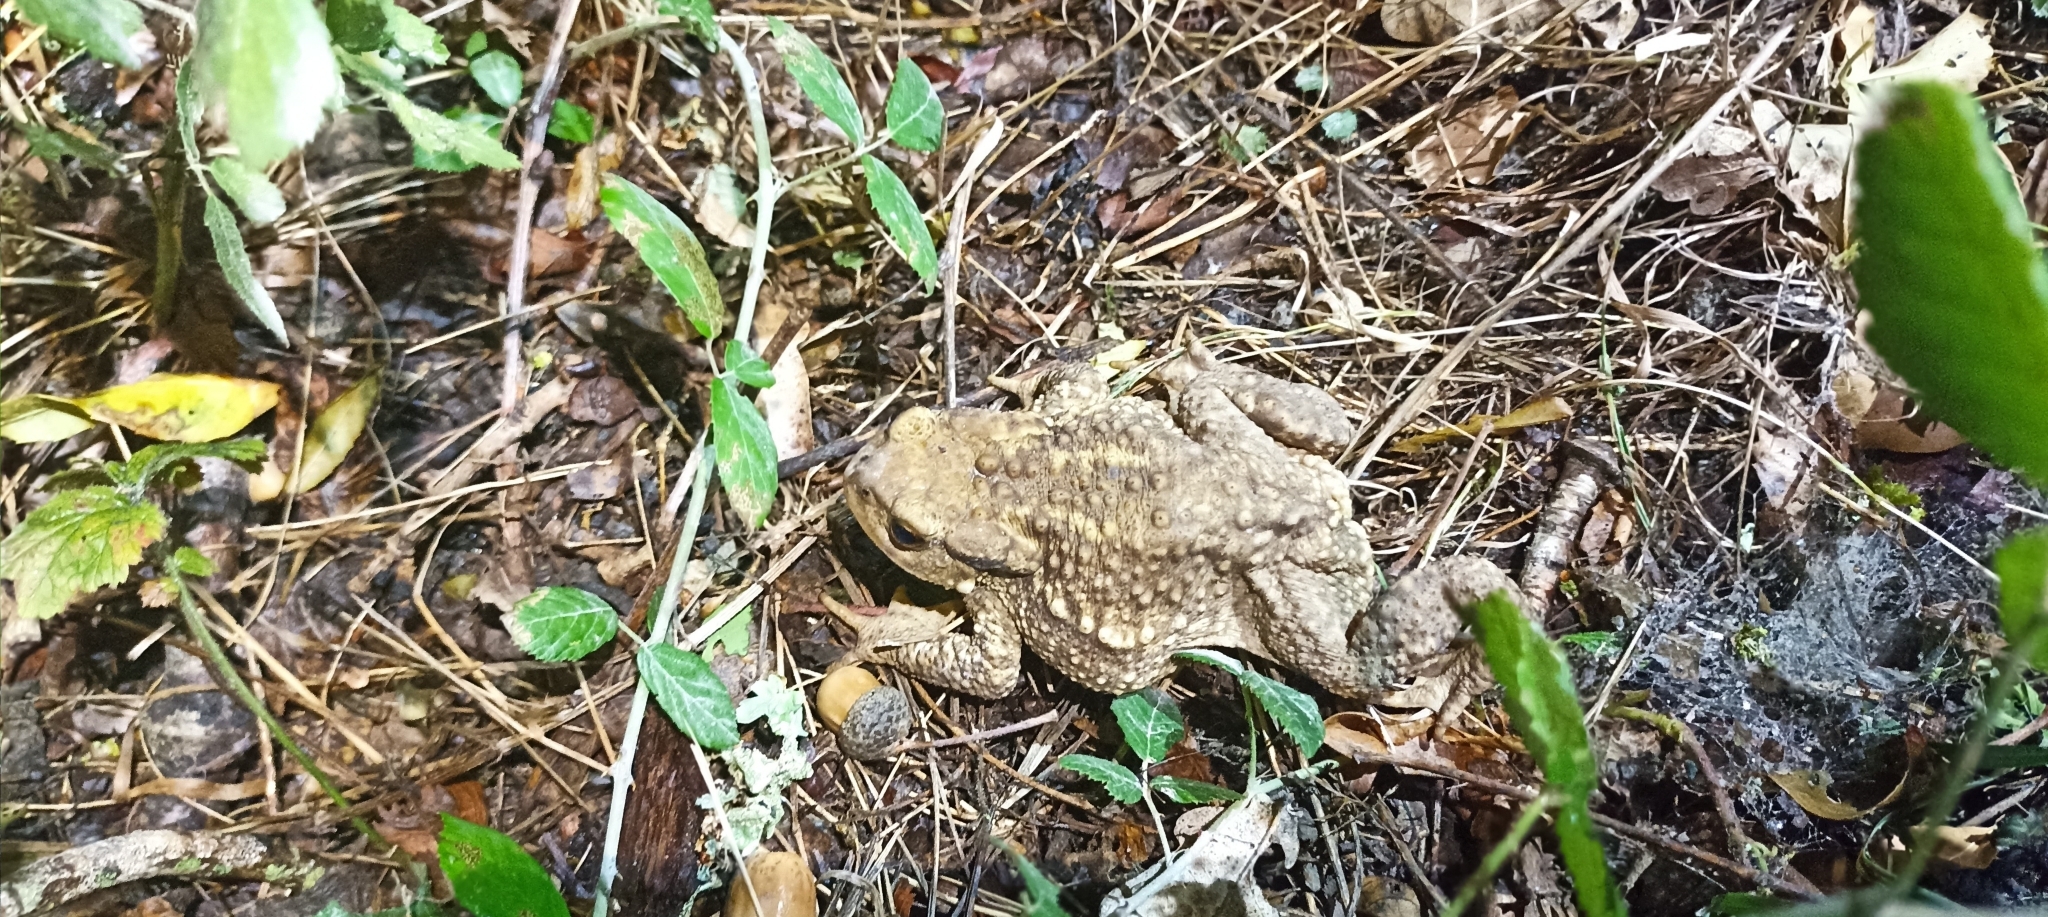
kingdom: Animalia
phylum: Chordata
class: Amphibia
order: Anura
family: Bufonidae
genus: Bufo
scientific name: Bufo spinosus
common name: Western common toad
